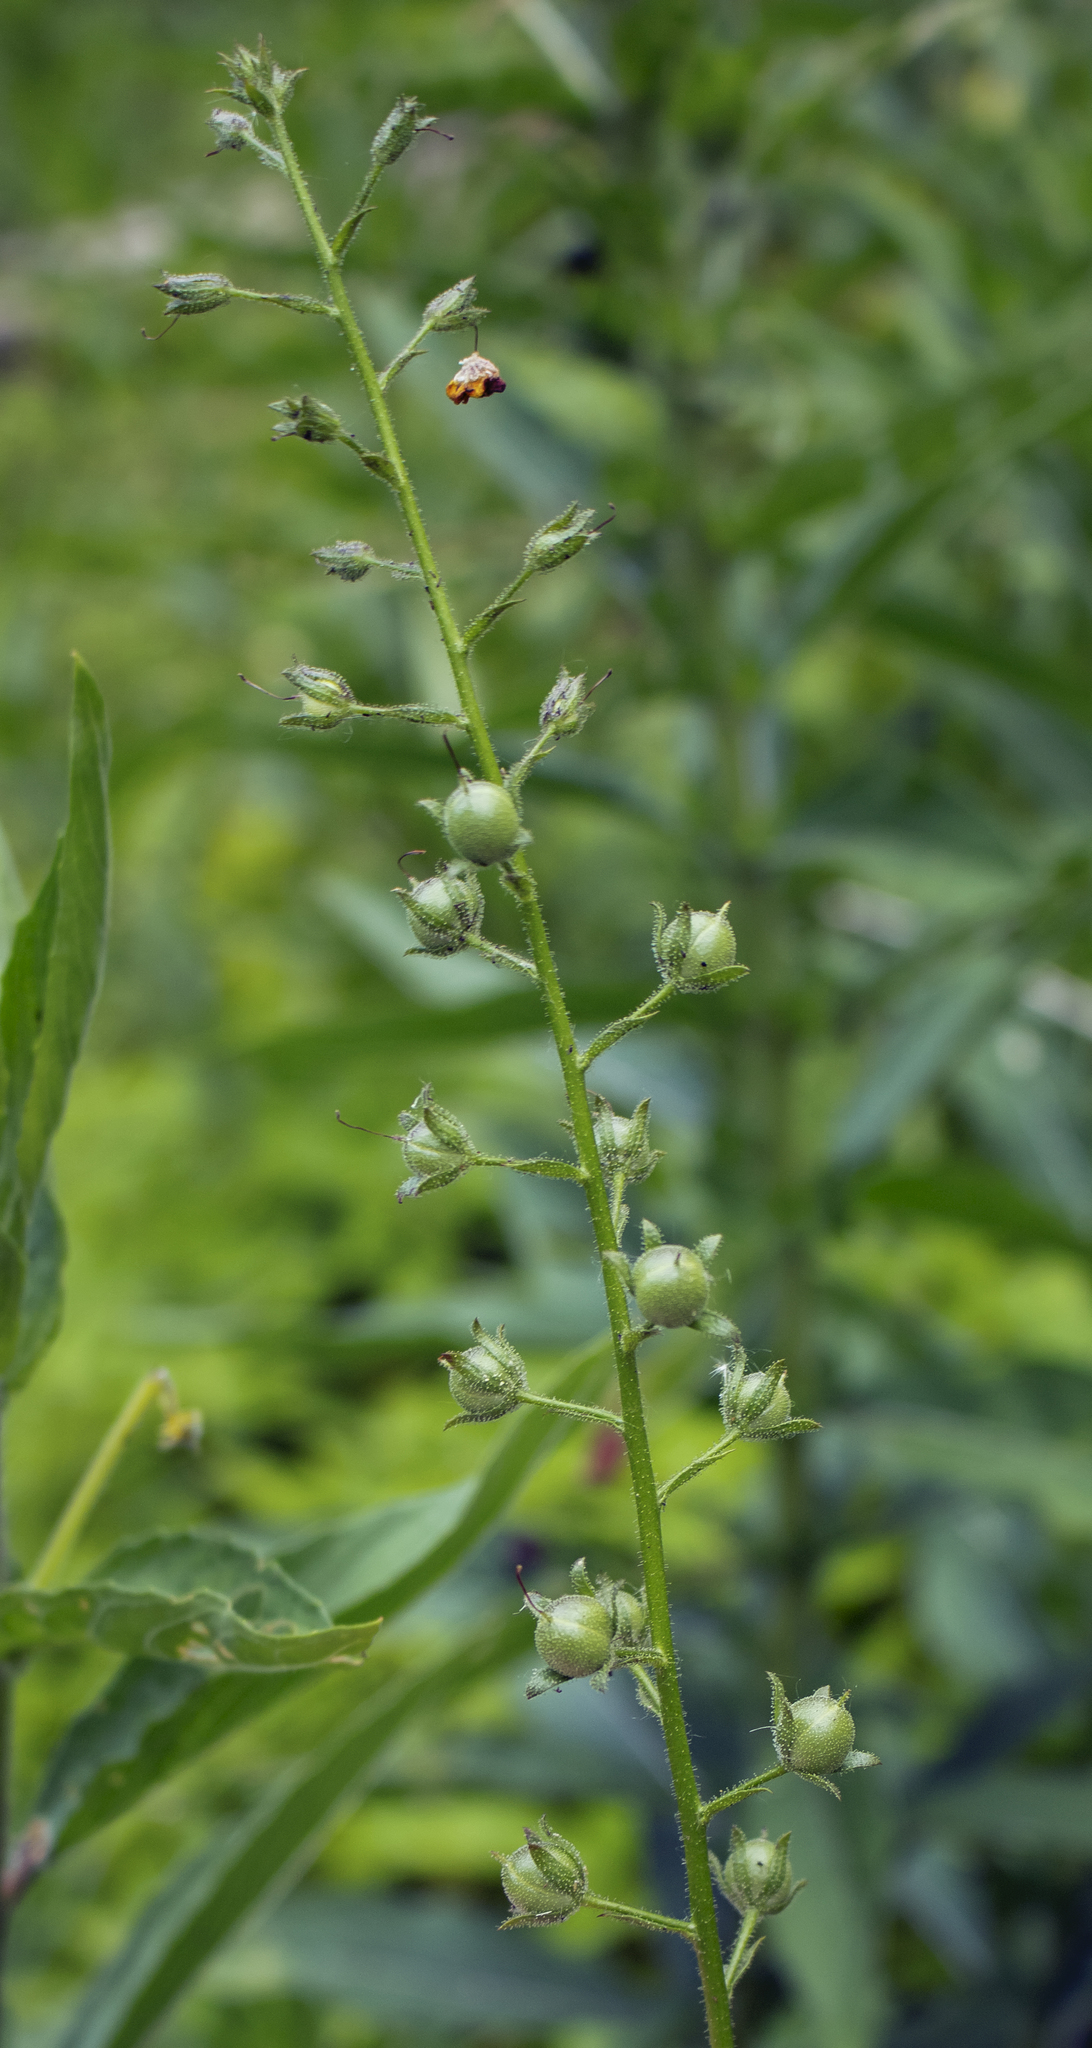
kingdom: Plantae
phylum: Tracheophyta
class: Magnoliopsida
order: Lamiales
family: Scrophulariaceae
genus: Verbascum
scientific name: Verbascum blattaria
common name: Moth mullein
